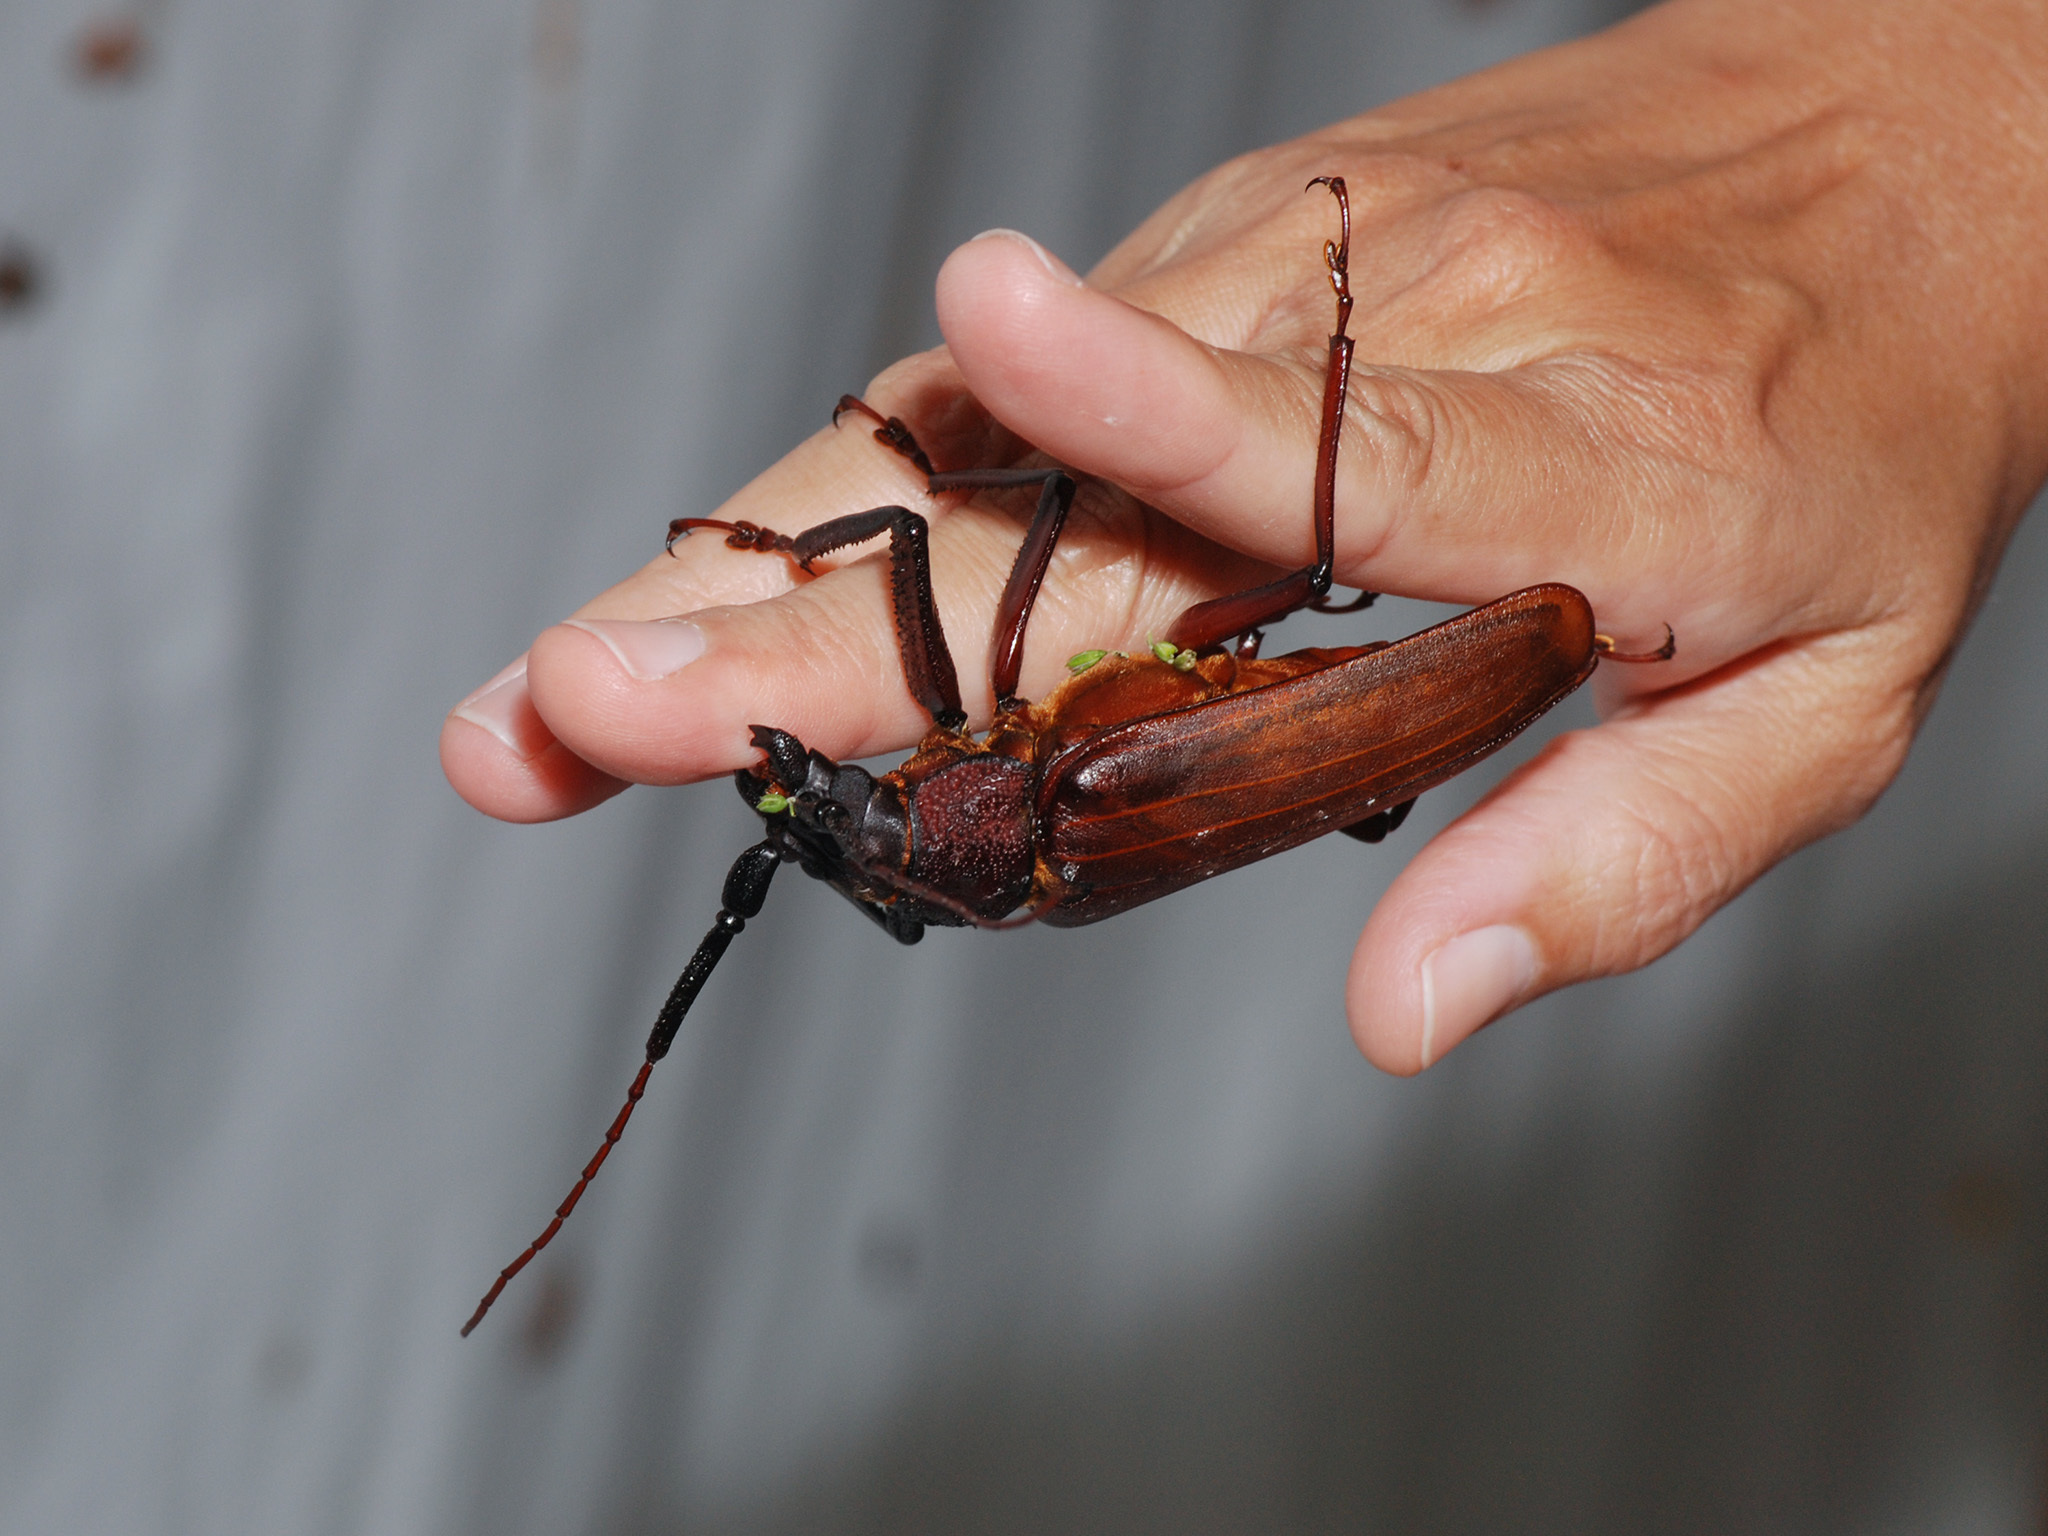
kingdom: Animalia
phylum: Arthropoda
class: Insecta
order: Coleoptera
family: Cerambycidae
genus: Bandar
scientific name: Bandar pascoei
